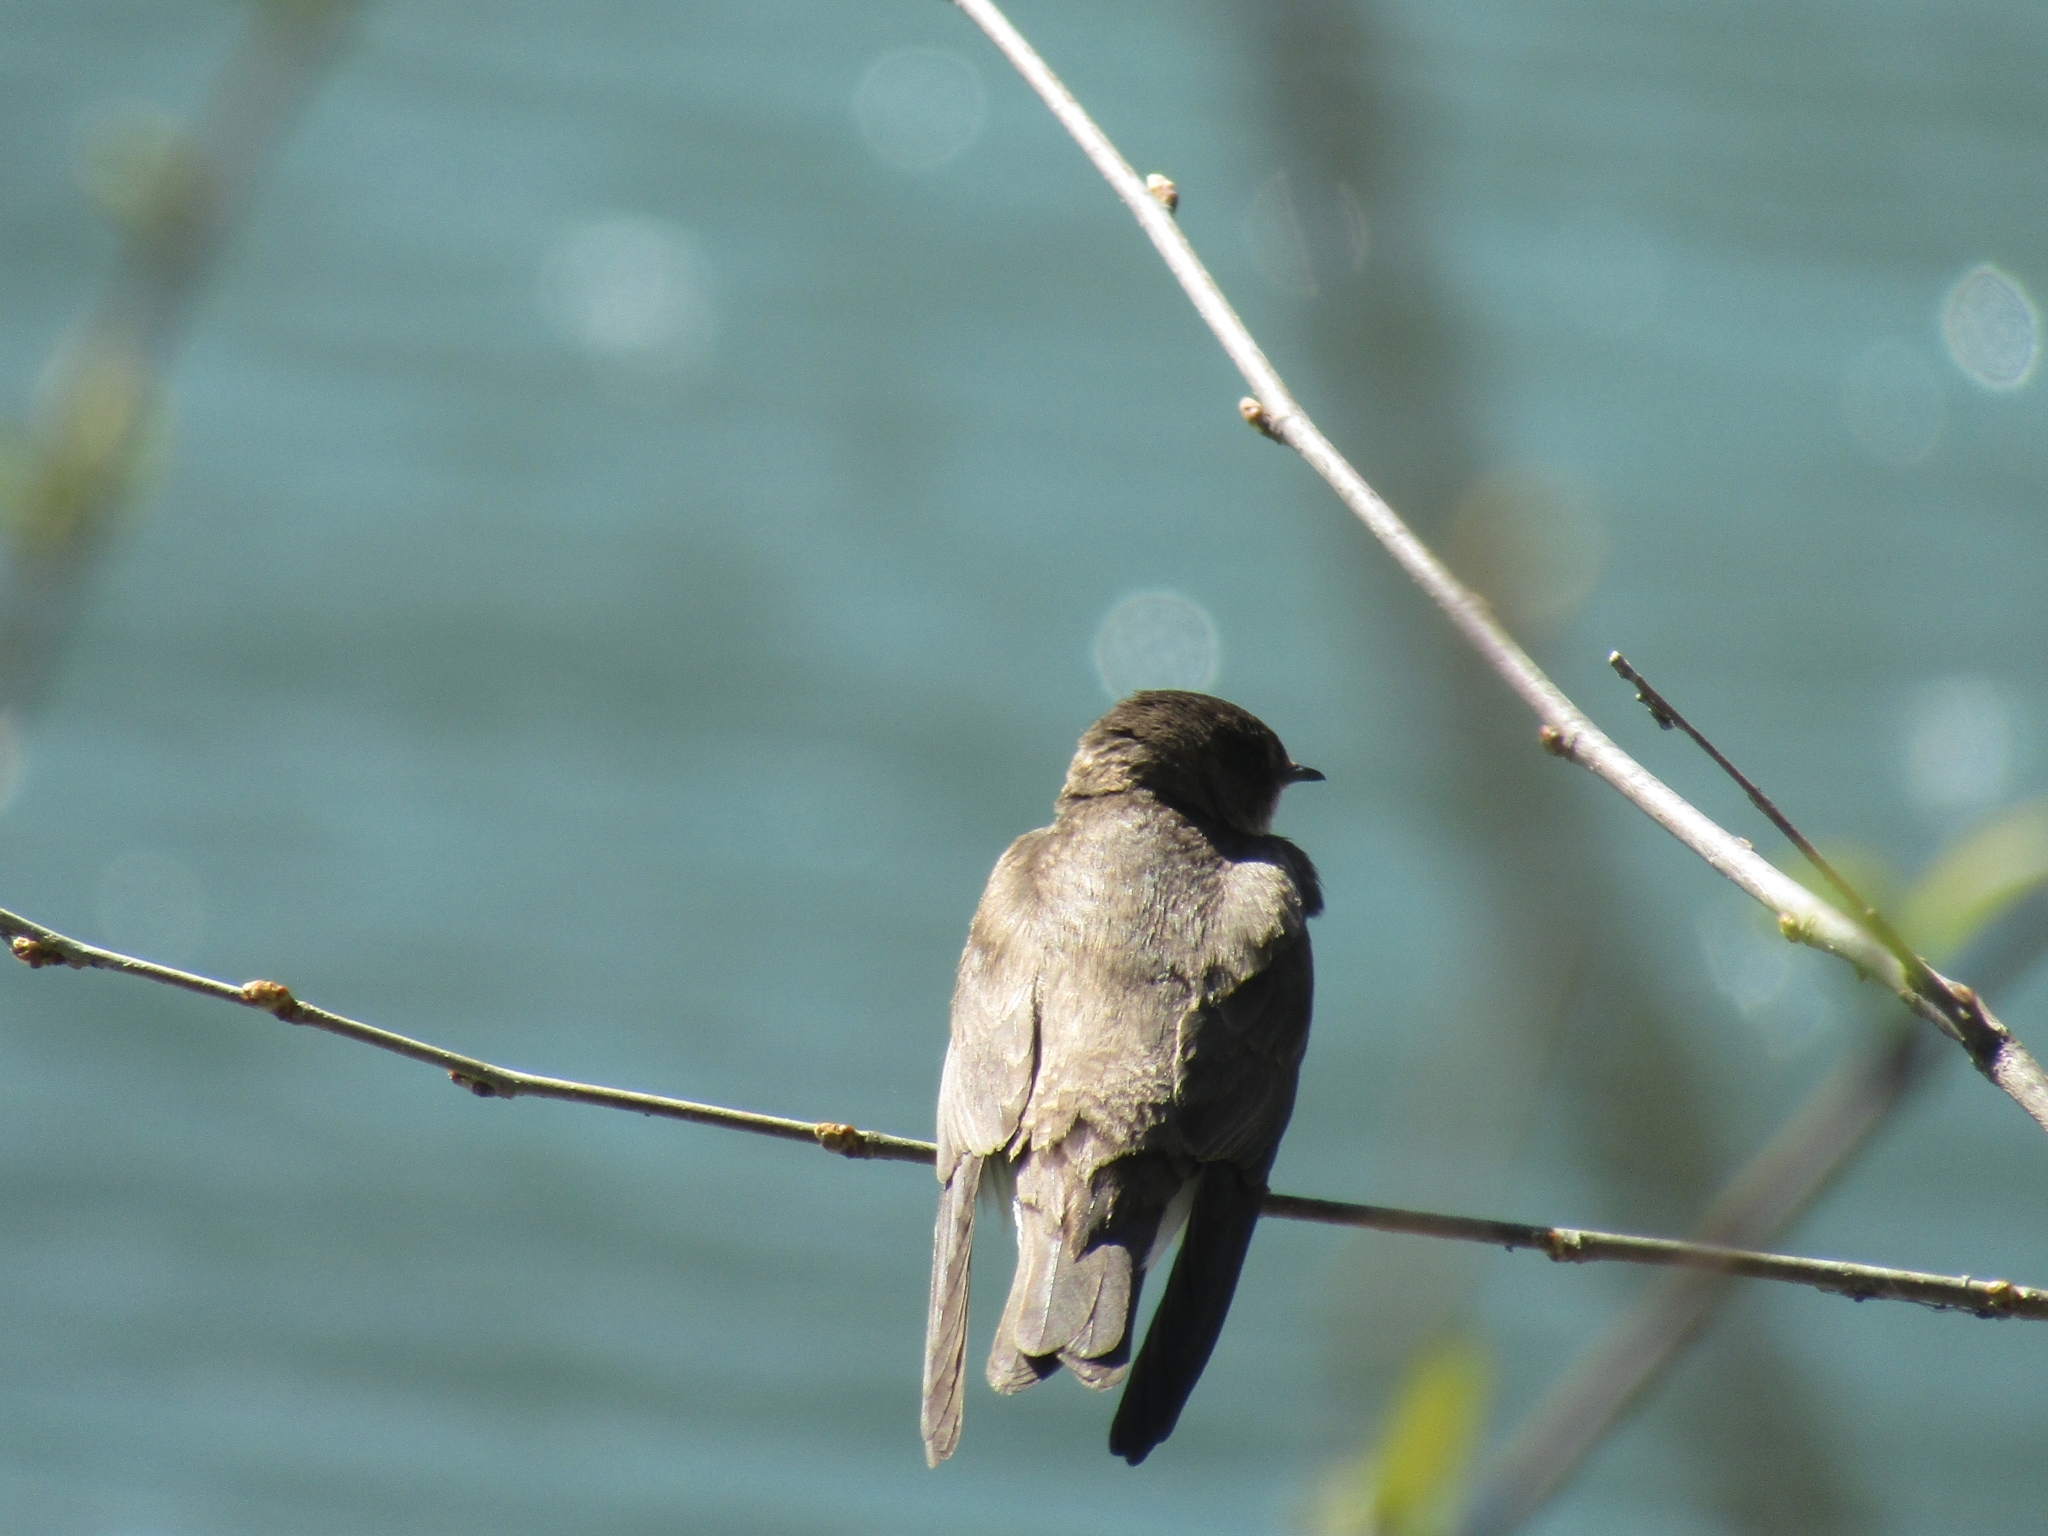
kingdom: Animalia
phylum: Chordata
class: Aves
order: Passeriformes
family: Hirundinidae
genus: Stelgidopteryx
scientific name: Stelgidopteryx serripennis
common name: Northern rough-winged swallow
